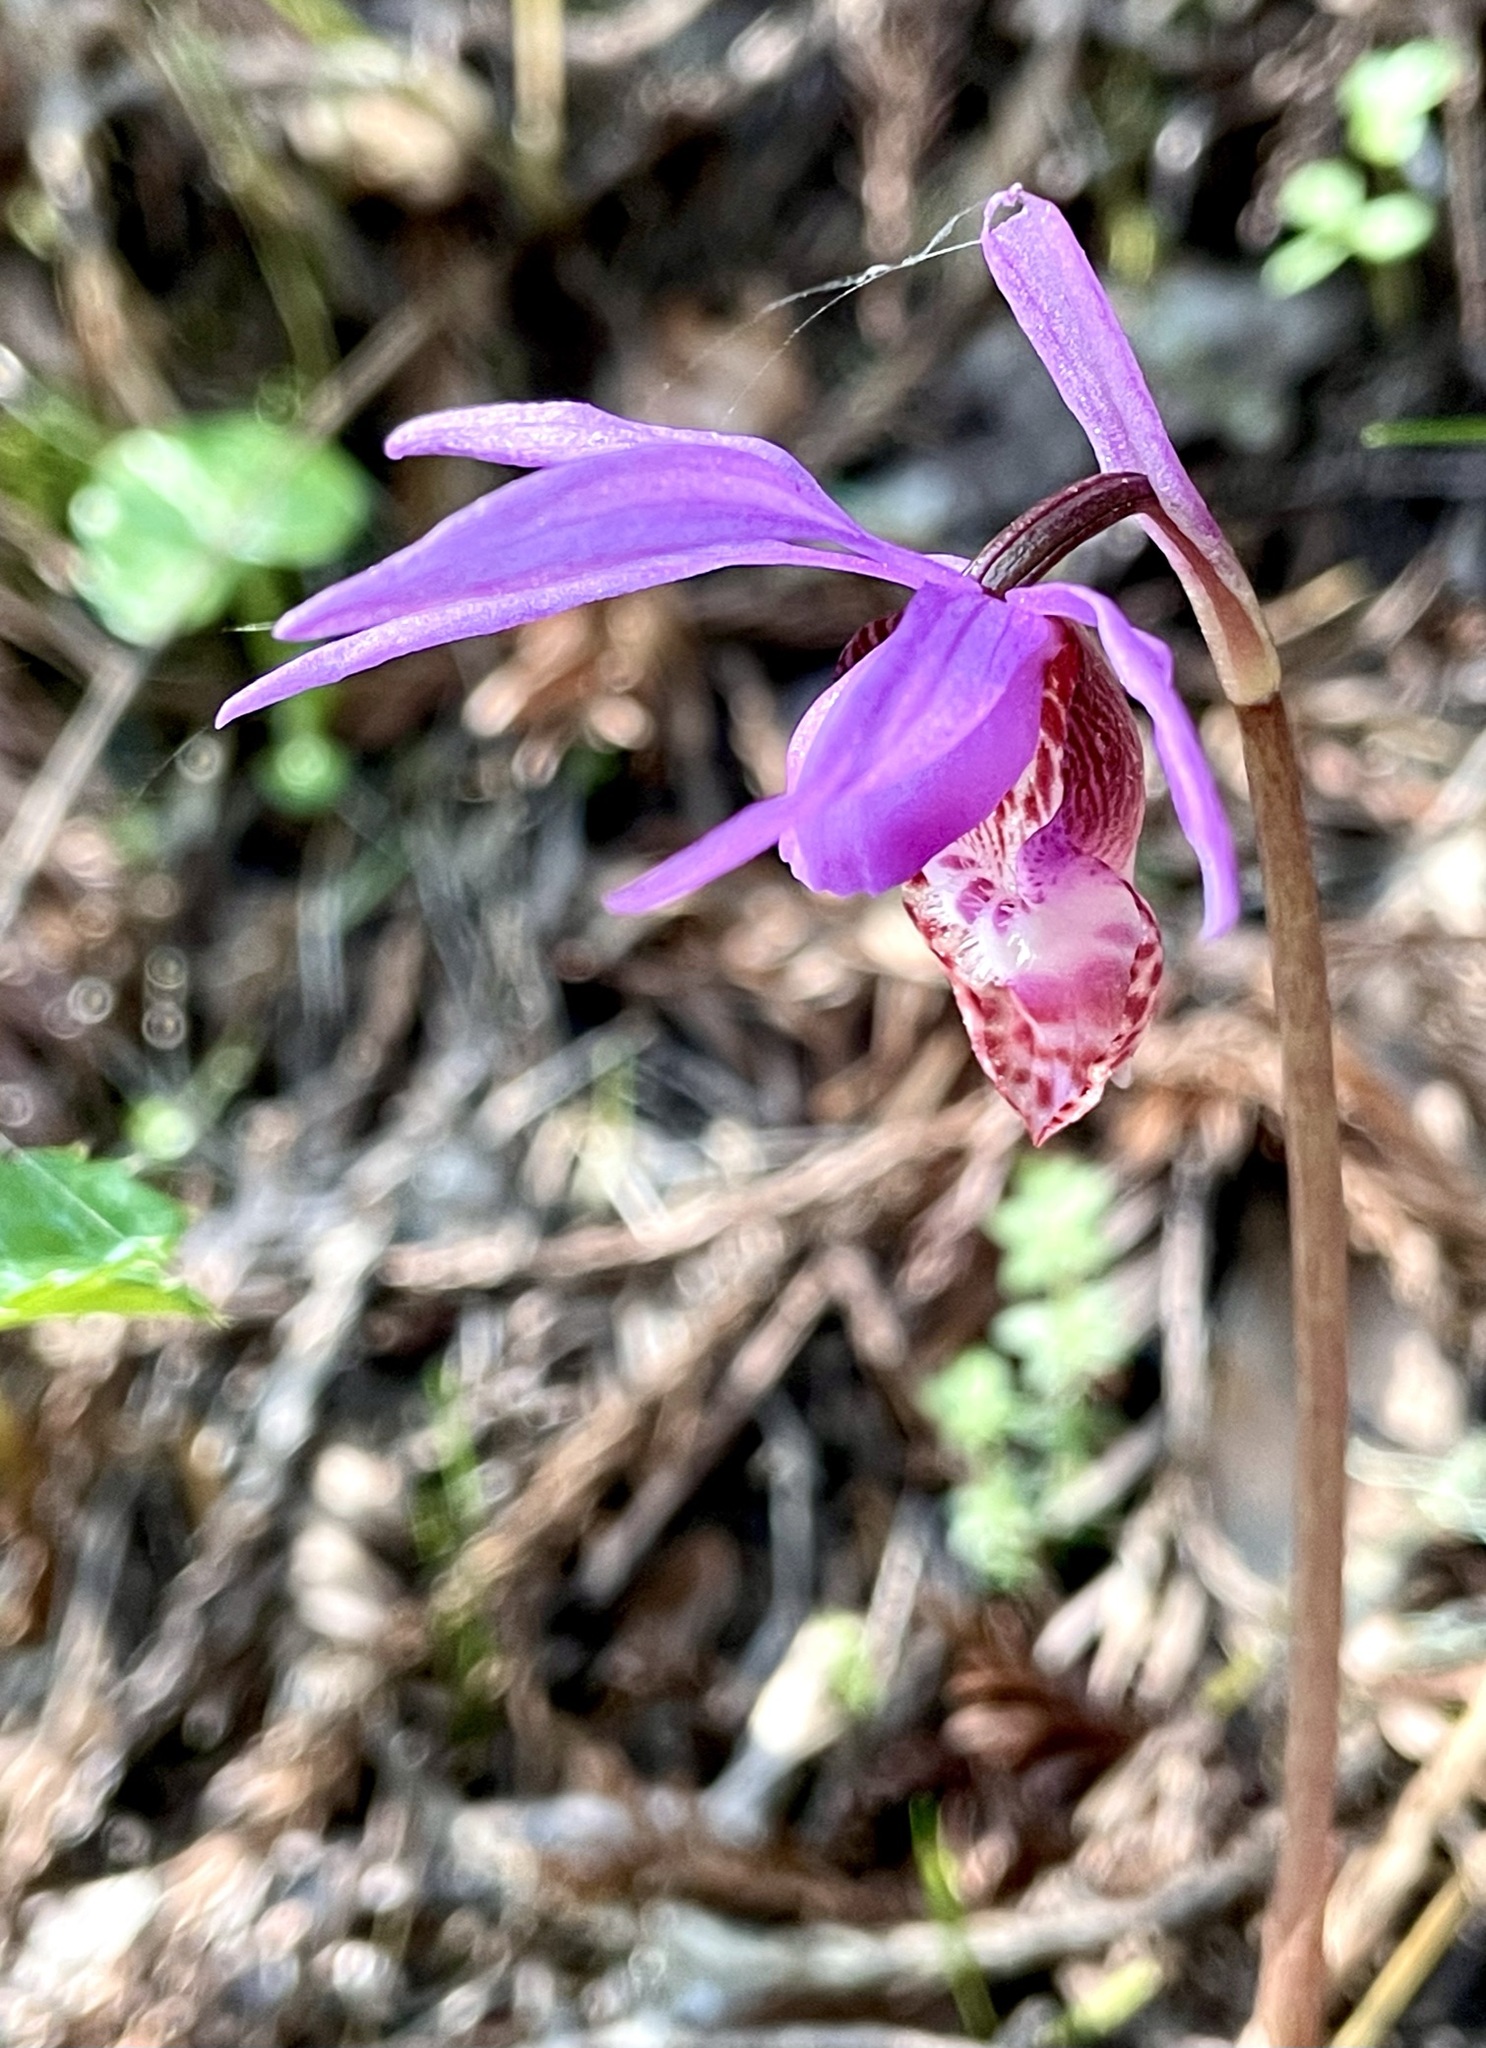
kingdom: Plantae
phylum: Tracheophyta
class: Liliopsida
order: Asparagales
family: Orchidaceae
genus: Calypso
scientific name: Calypso bulbosa
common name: Calypso
